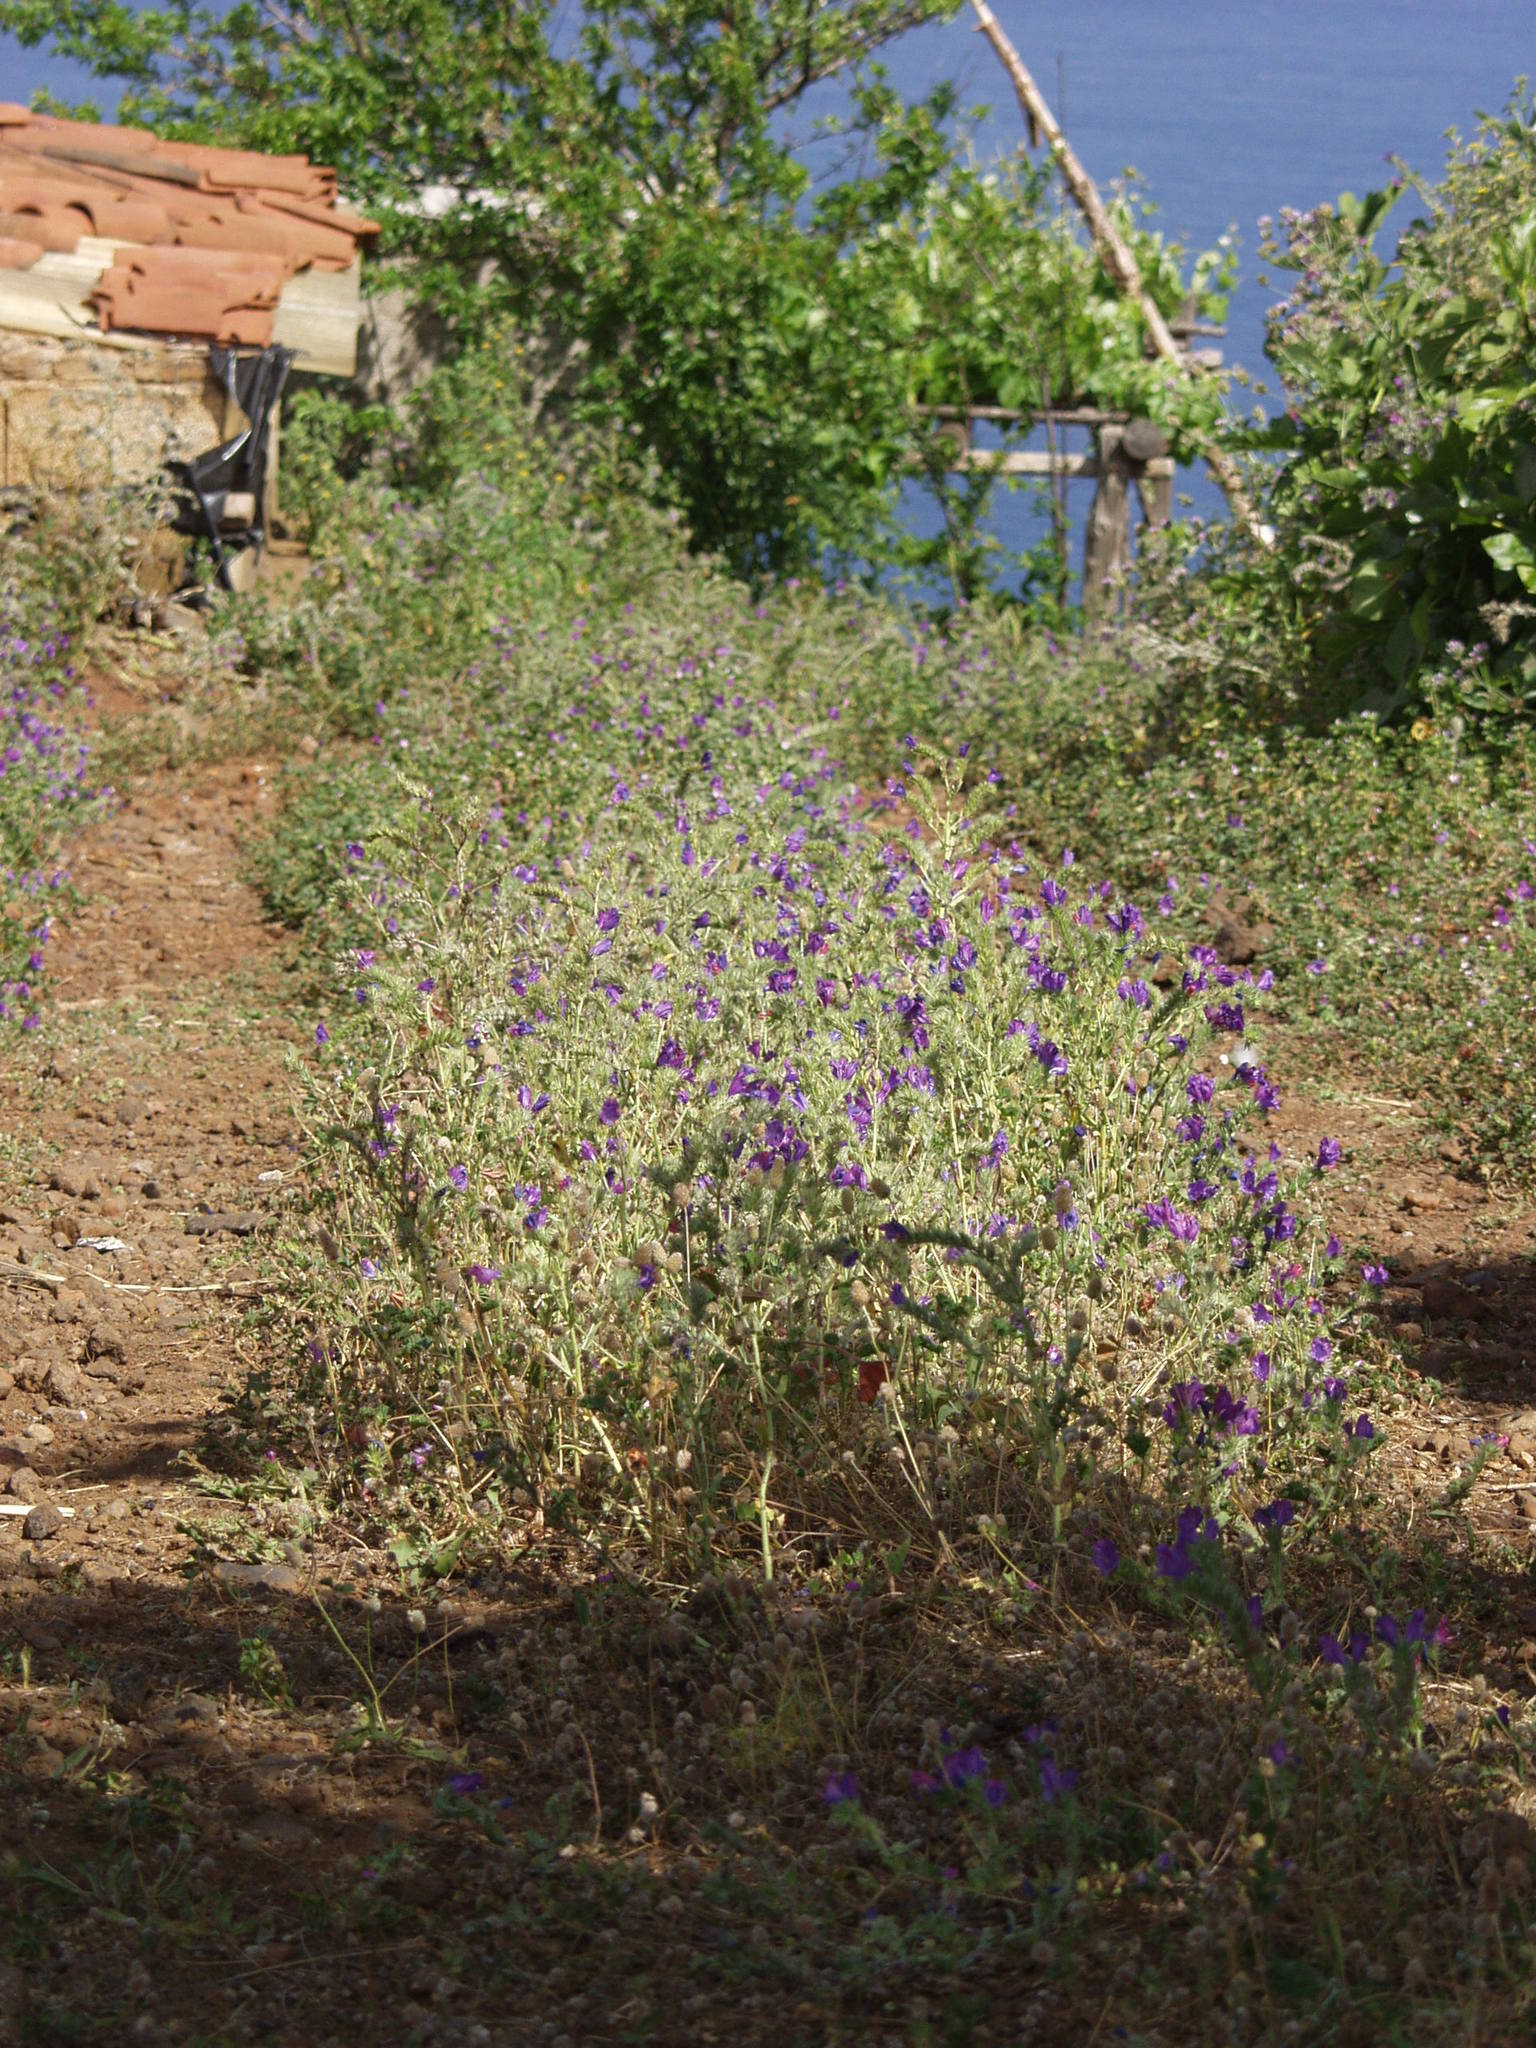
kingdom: Plantae
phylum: Tracheophyta
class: Magnoliopsida
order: Boraginales
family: Boraginaceae
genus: Echium
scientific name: Echium plantagineum
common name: Purple viper's-bugloss
